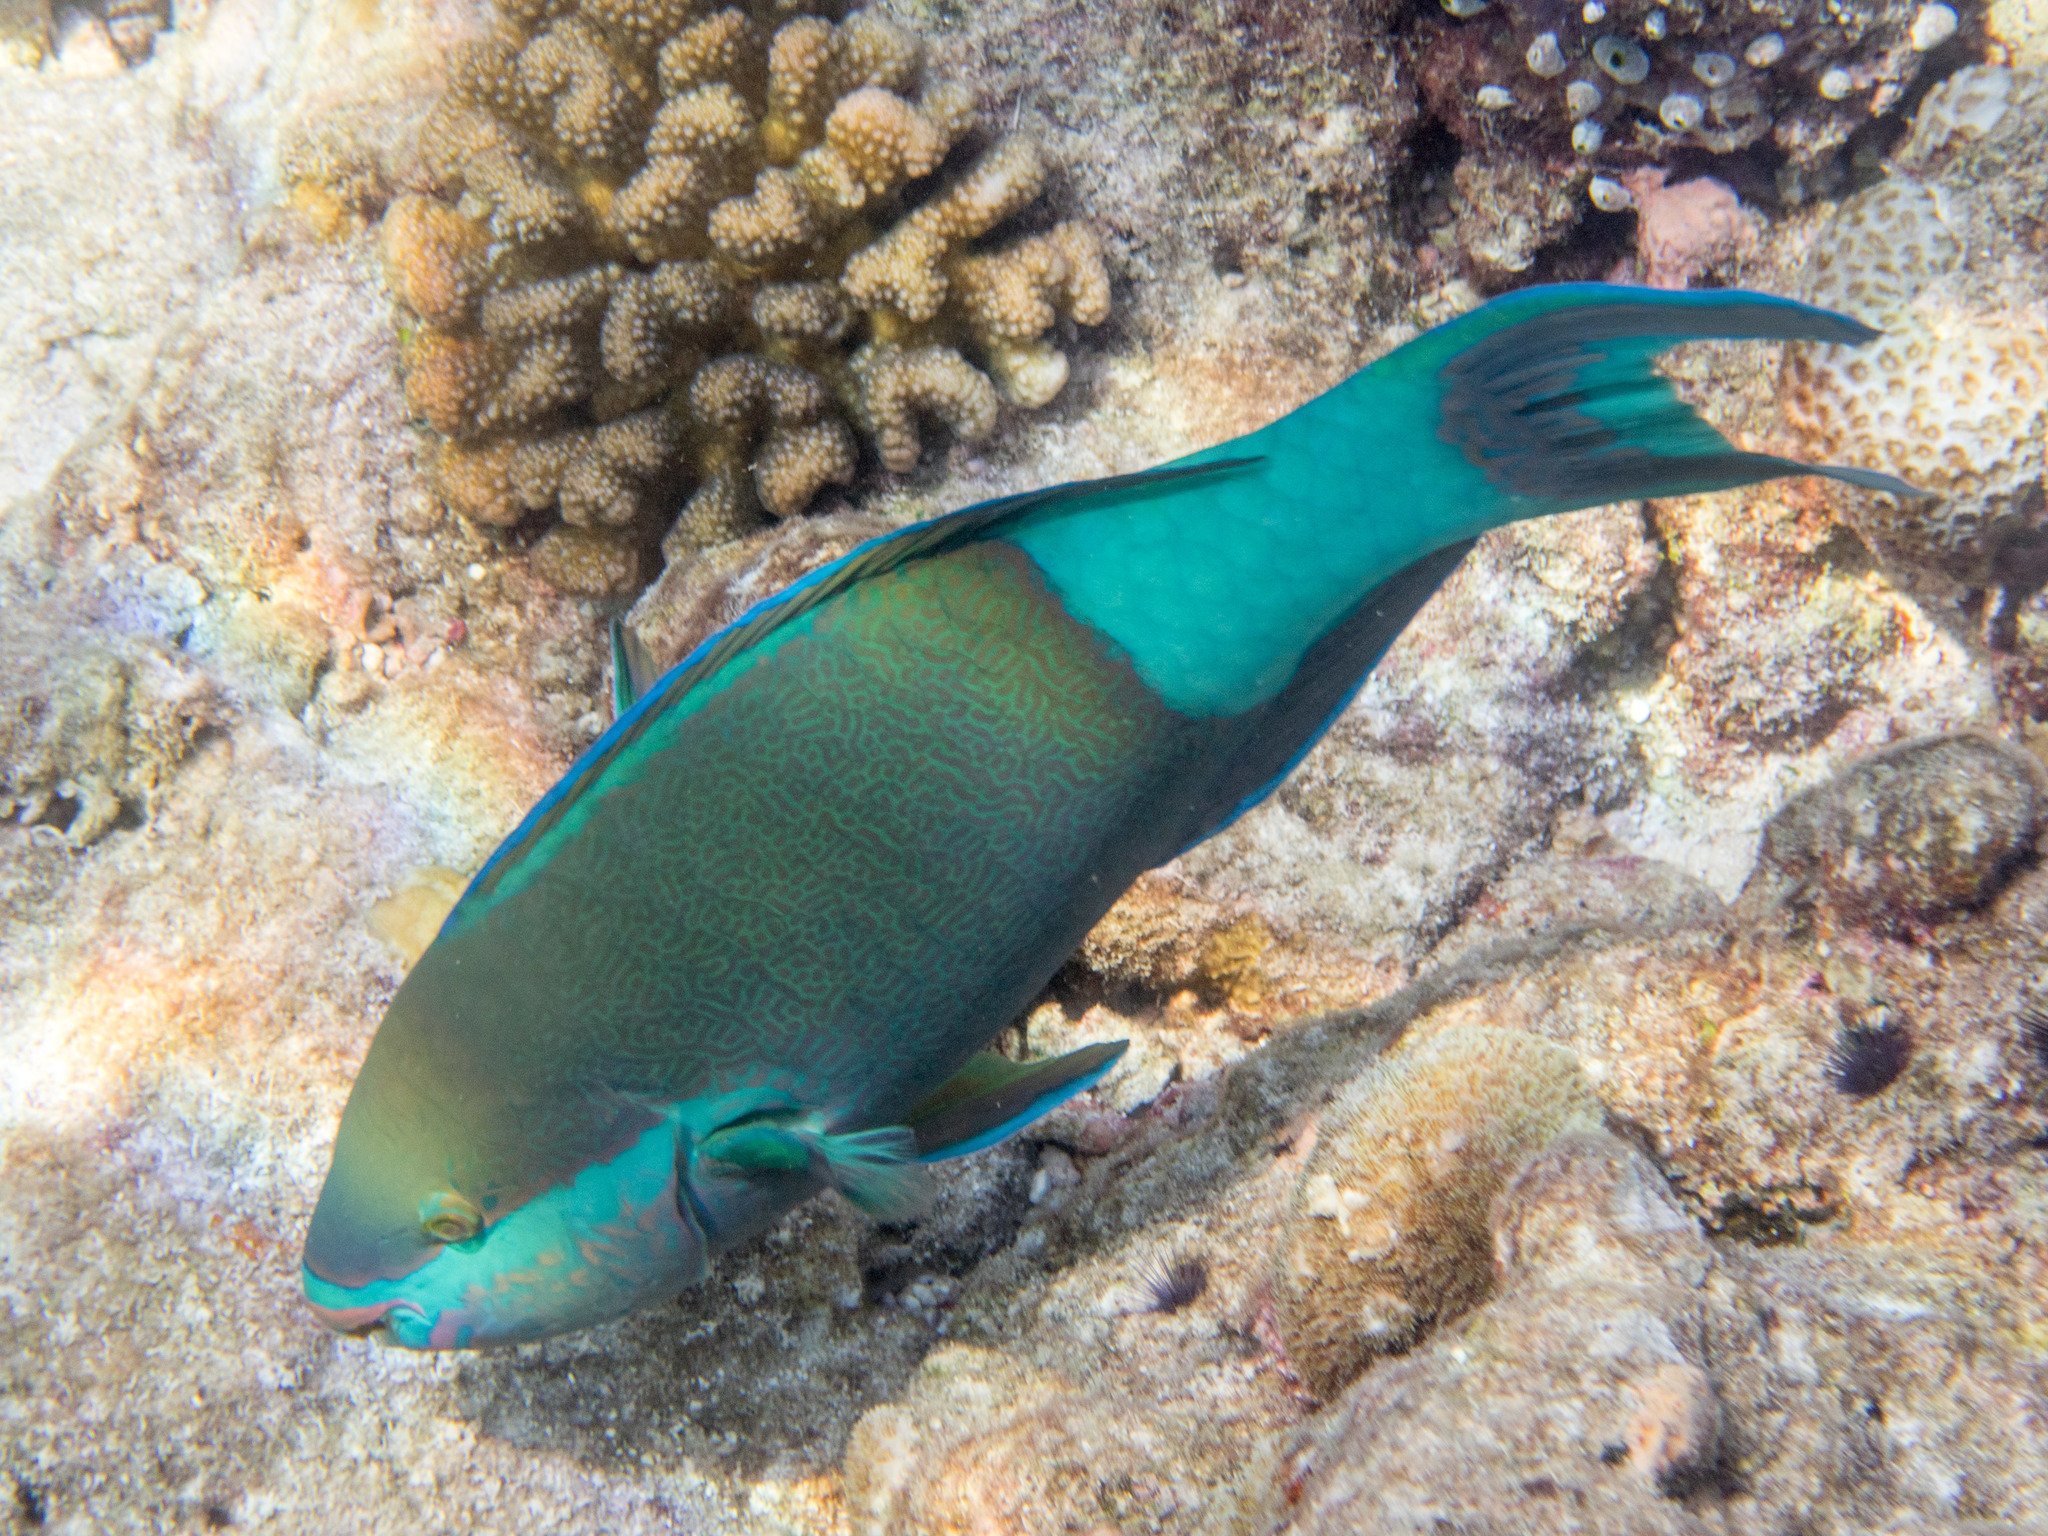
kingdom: Animalia
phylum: Chordata
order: Perciformes
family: Scaridae
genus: Scarus
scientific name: Scarus frenatus
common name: Bridled parrotfish
